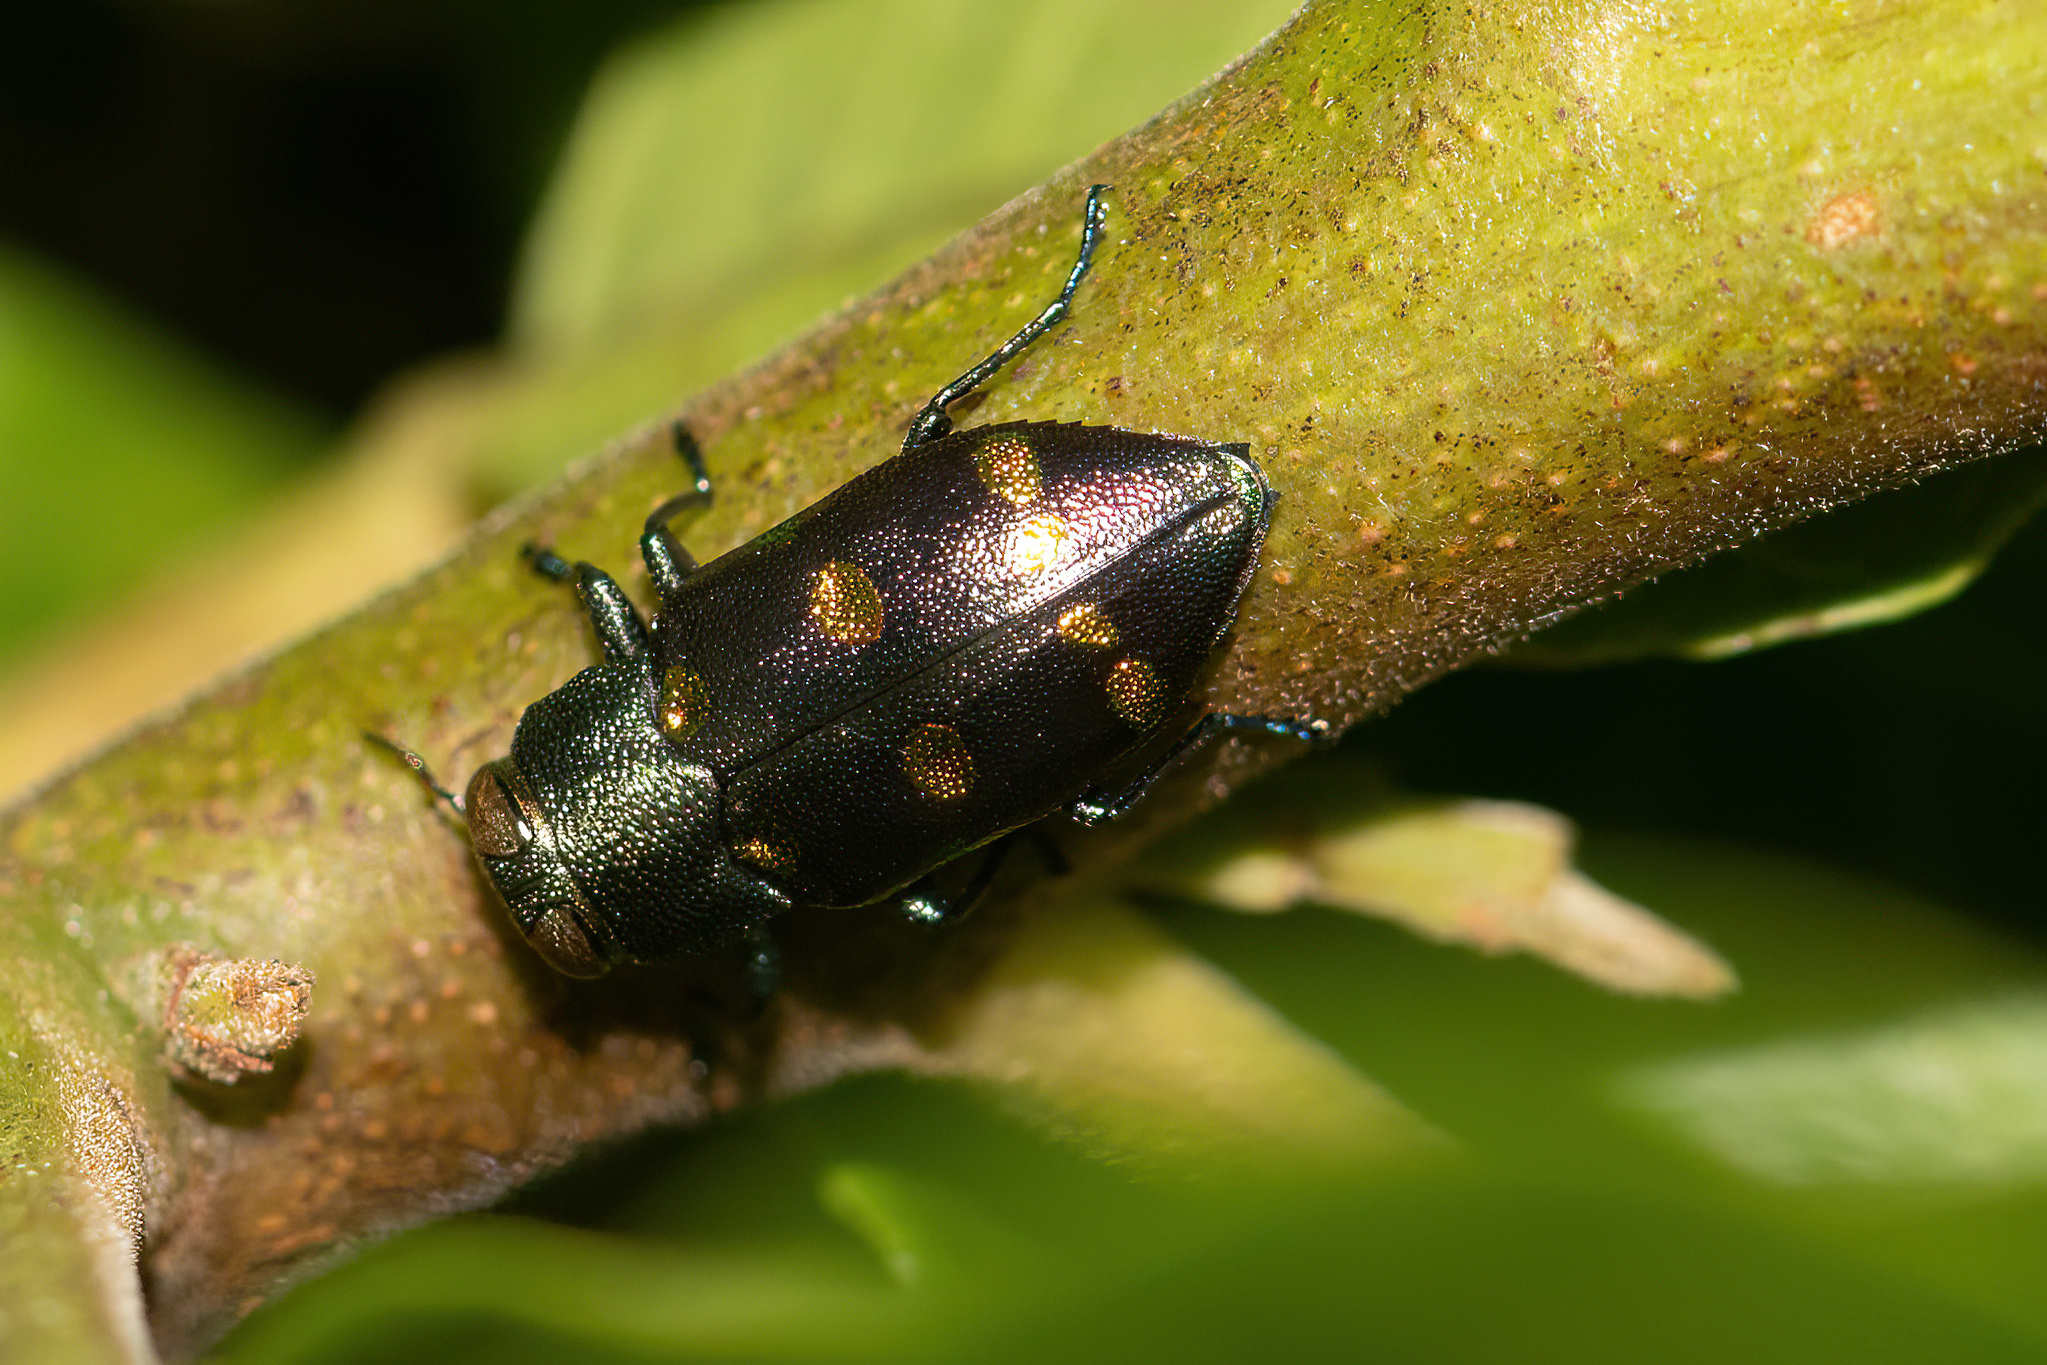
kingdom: Animalia
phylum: Arthropoda
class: Insecta
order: Coleoptera
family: Buprestidae
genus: Chrysobothris
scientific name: Chrysobothris chrysoela
